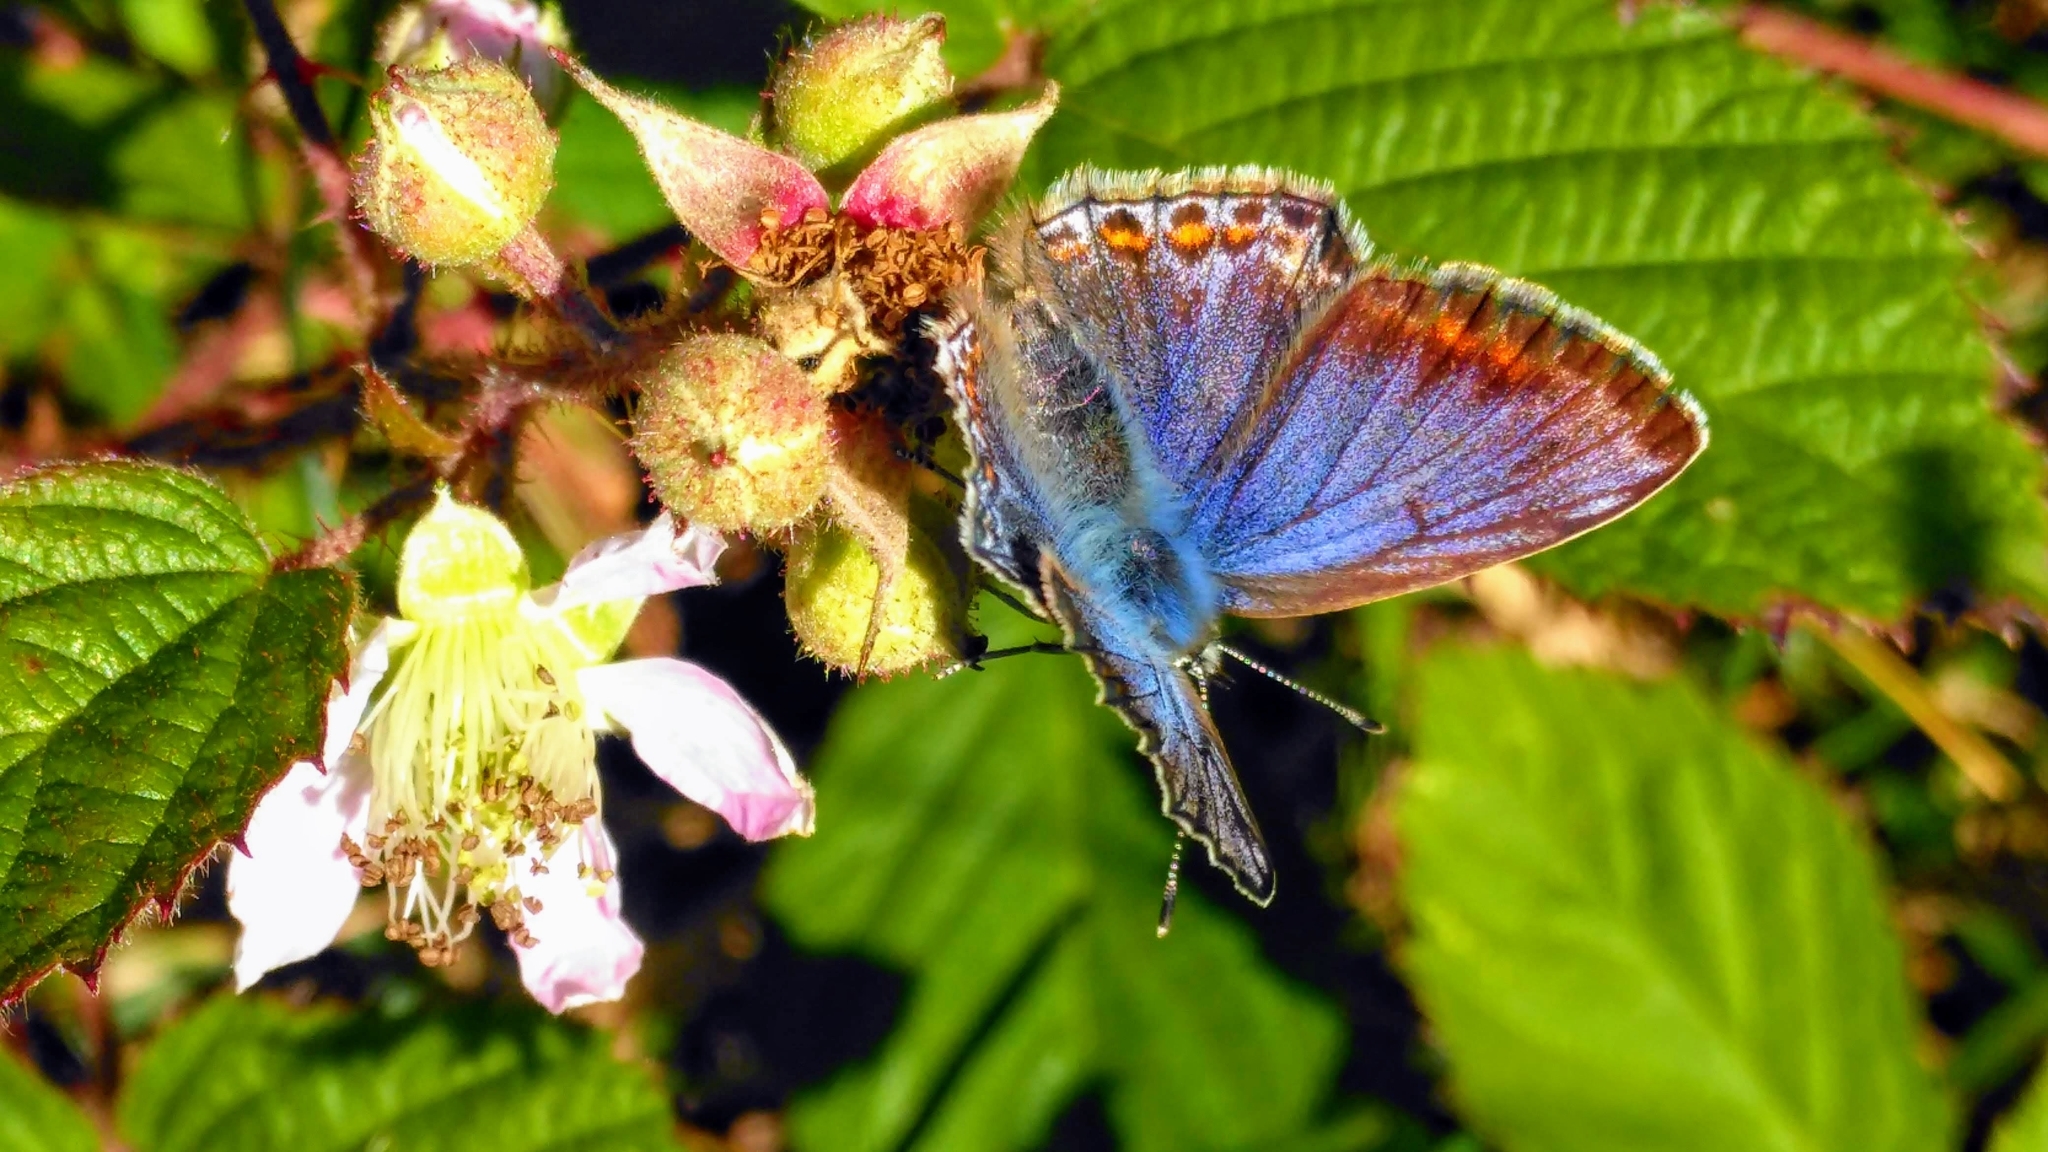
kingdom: Animalia
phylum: Arthropoda
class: Insecta
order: Lepidoptera
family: Lycaenidae
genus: Polyommatus
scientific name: Polyommatus icarus
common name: Common blue
